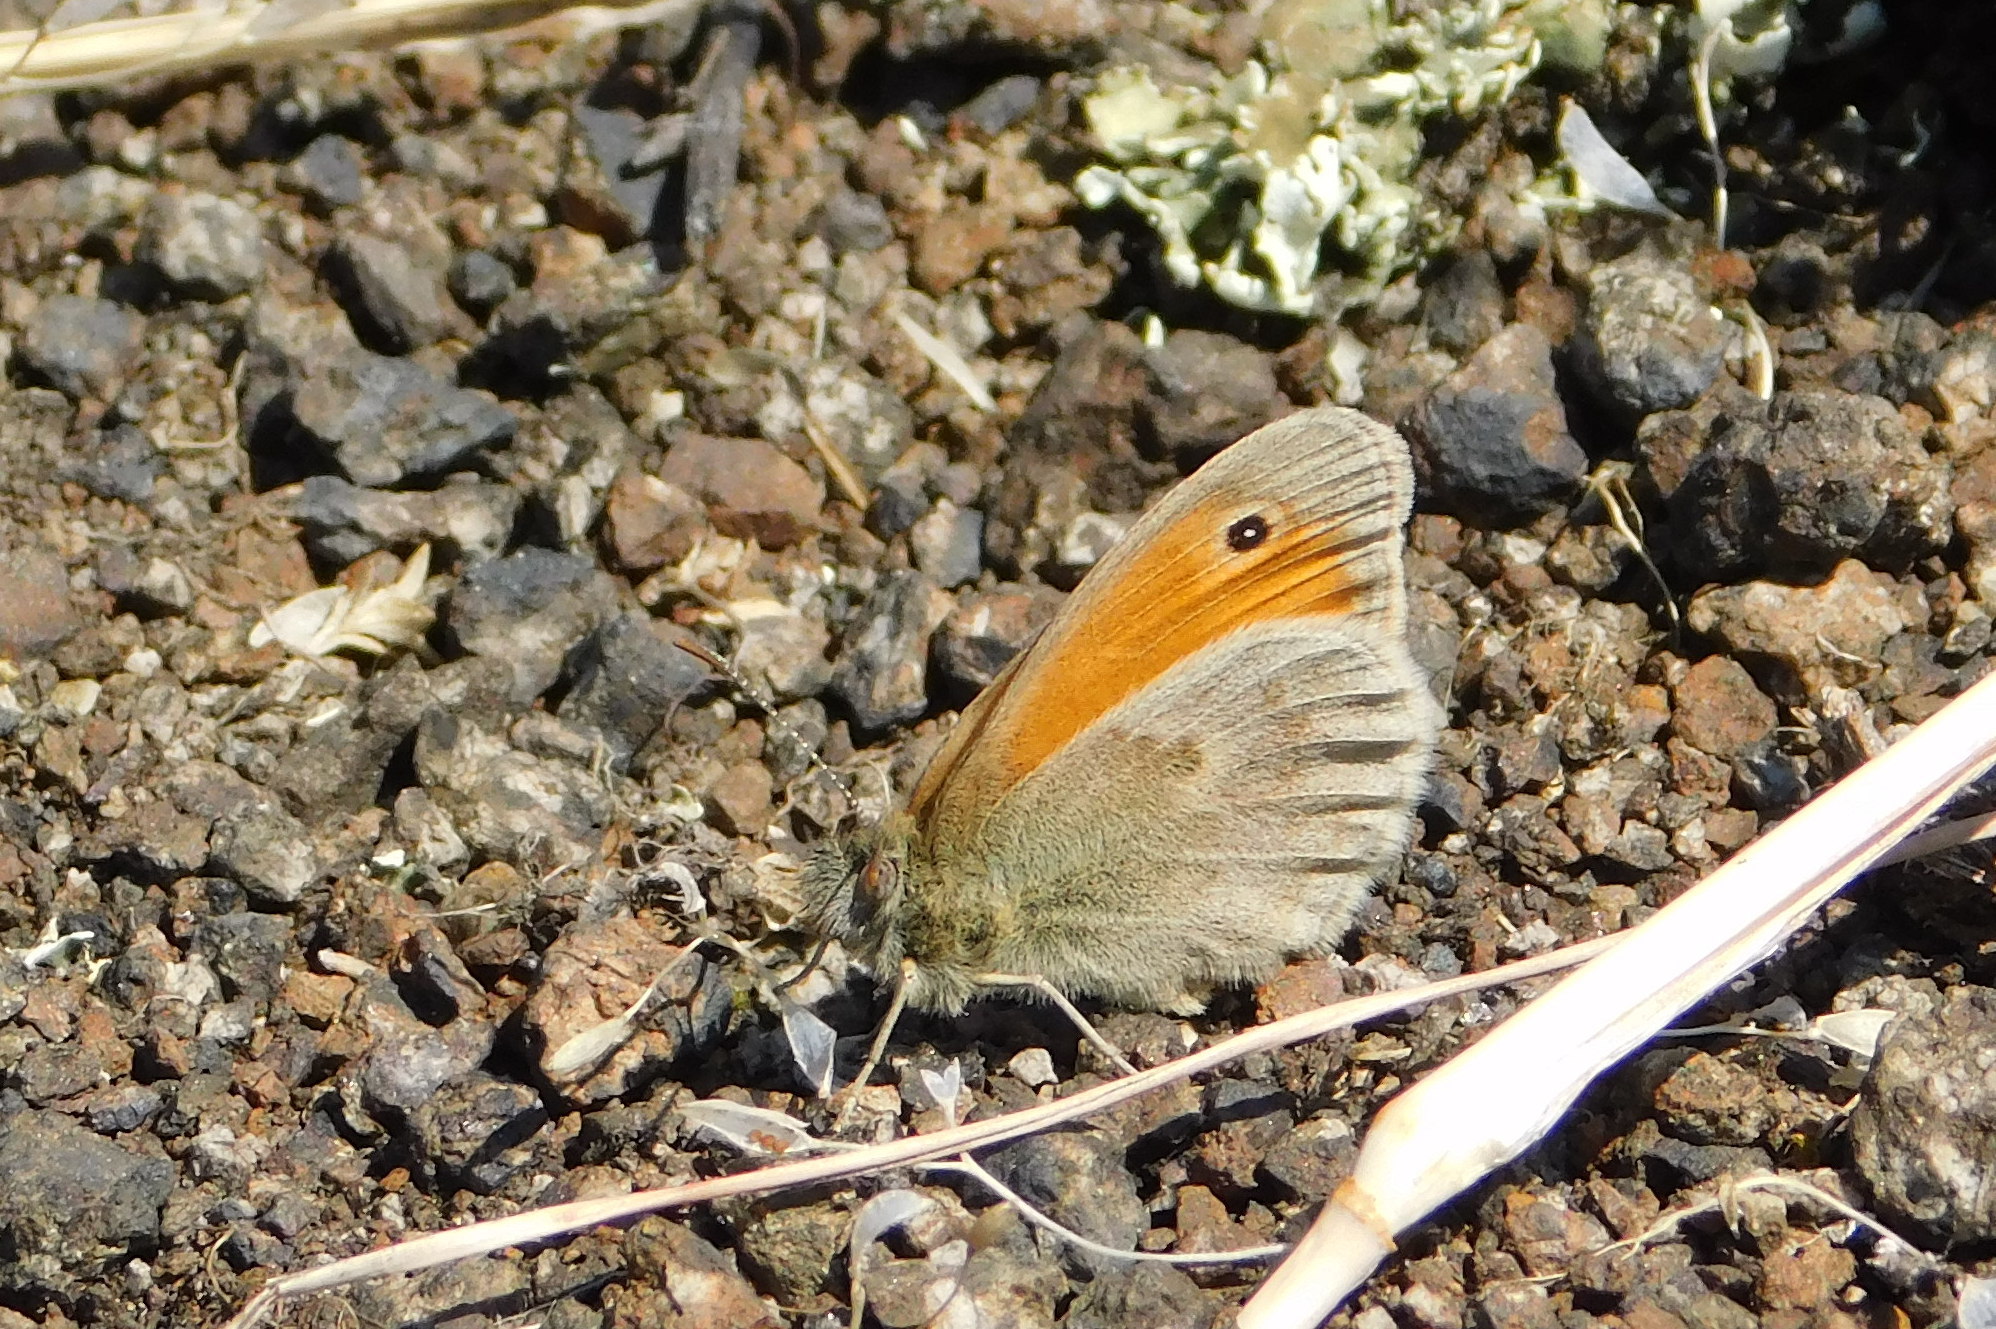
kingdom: Animalia
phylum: Arthropoda
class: Insecta
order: Lepidoptera
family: Nymphalidae
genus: Coenonympha
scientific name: Coenonympha pamphilus
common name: Small heath
